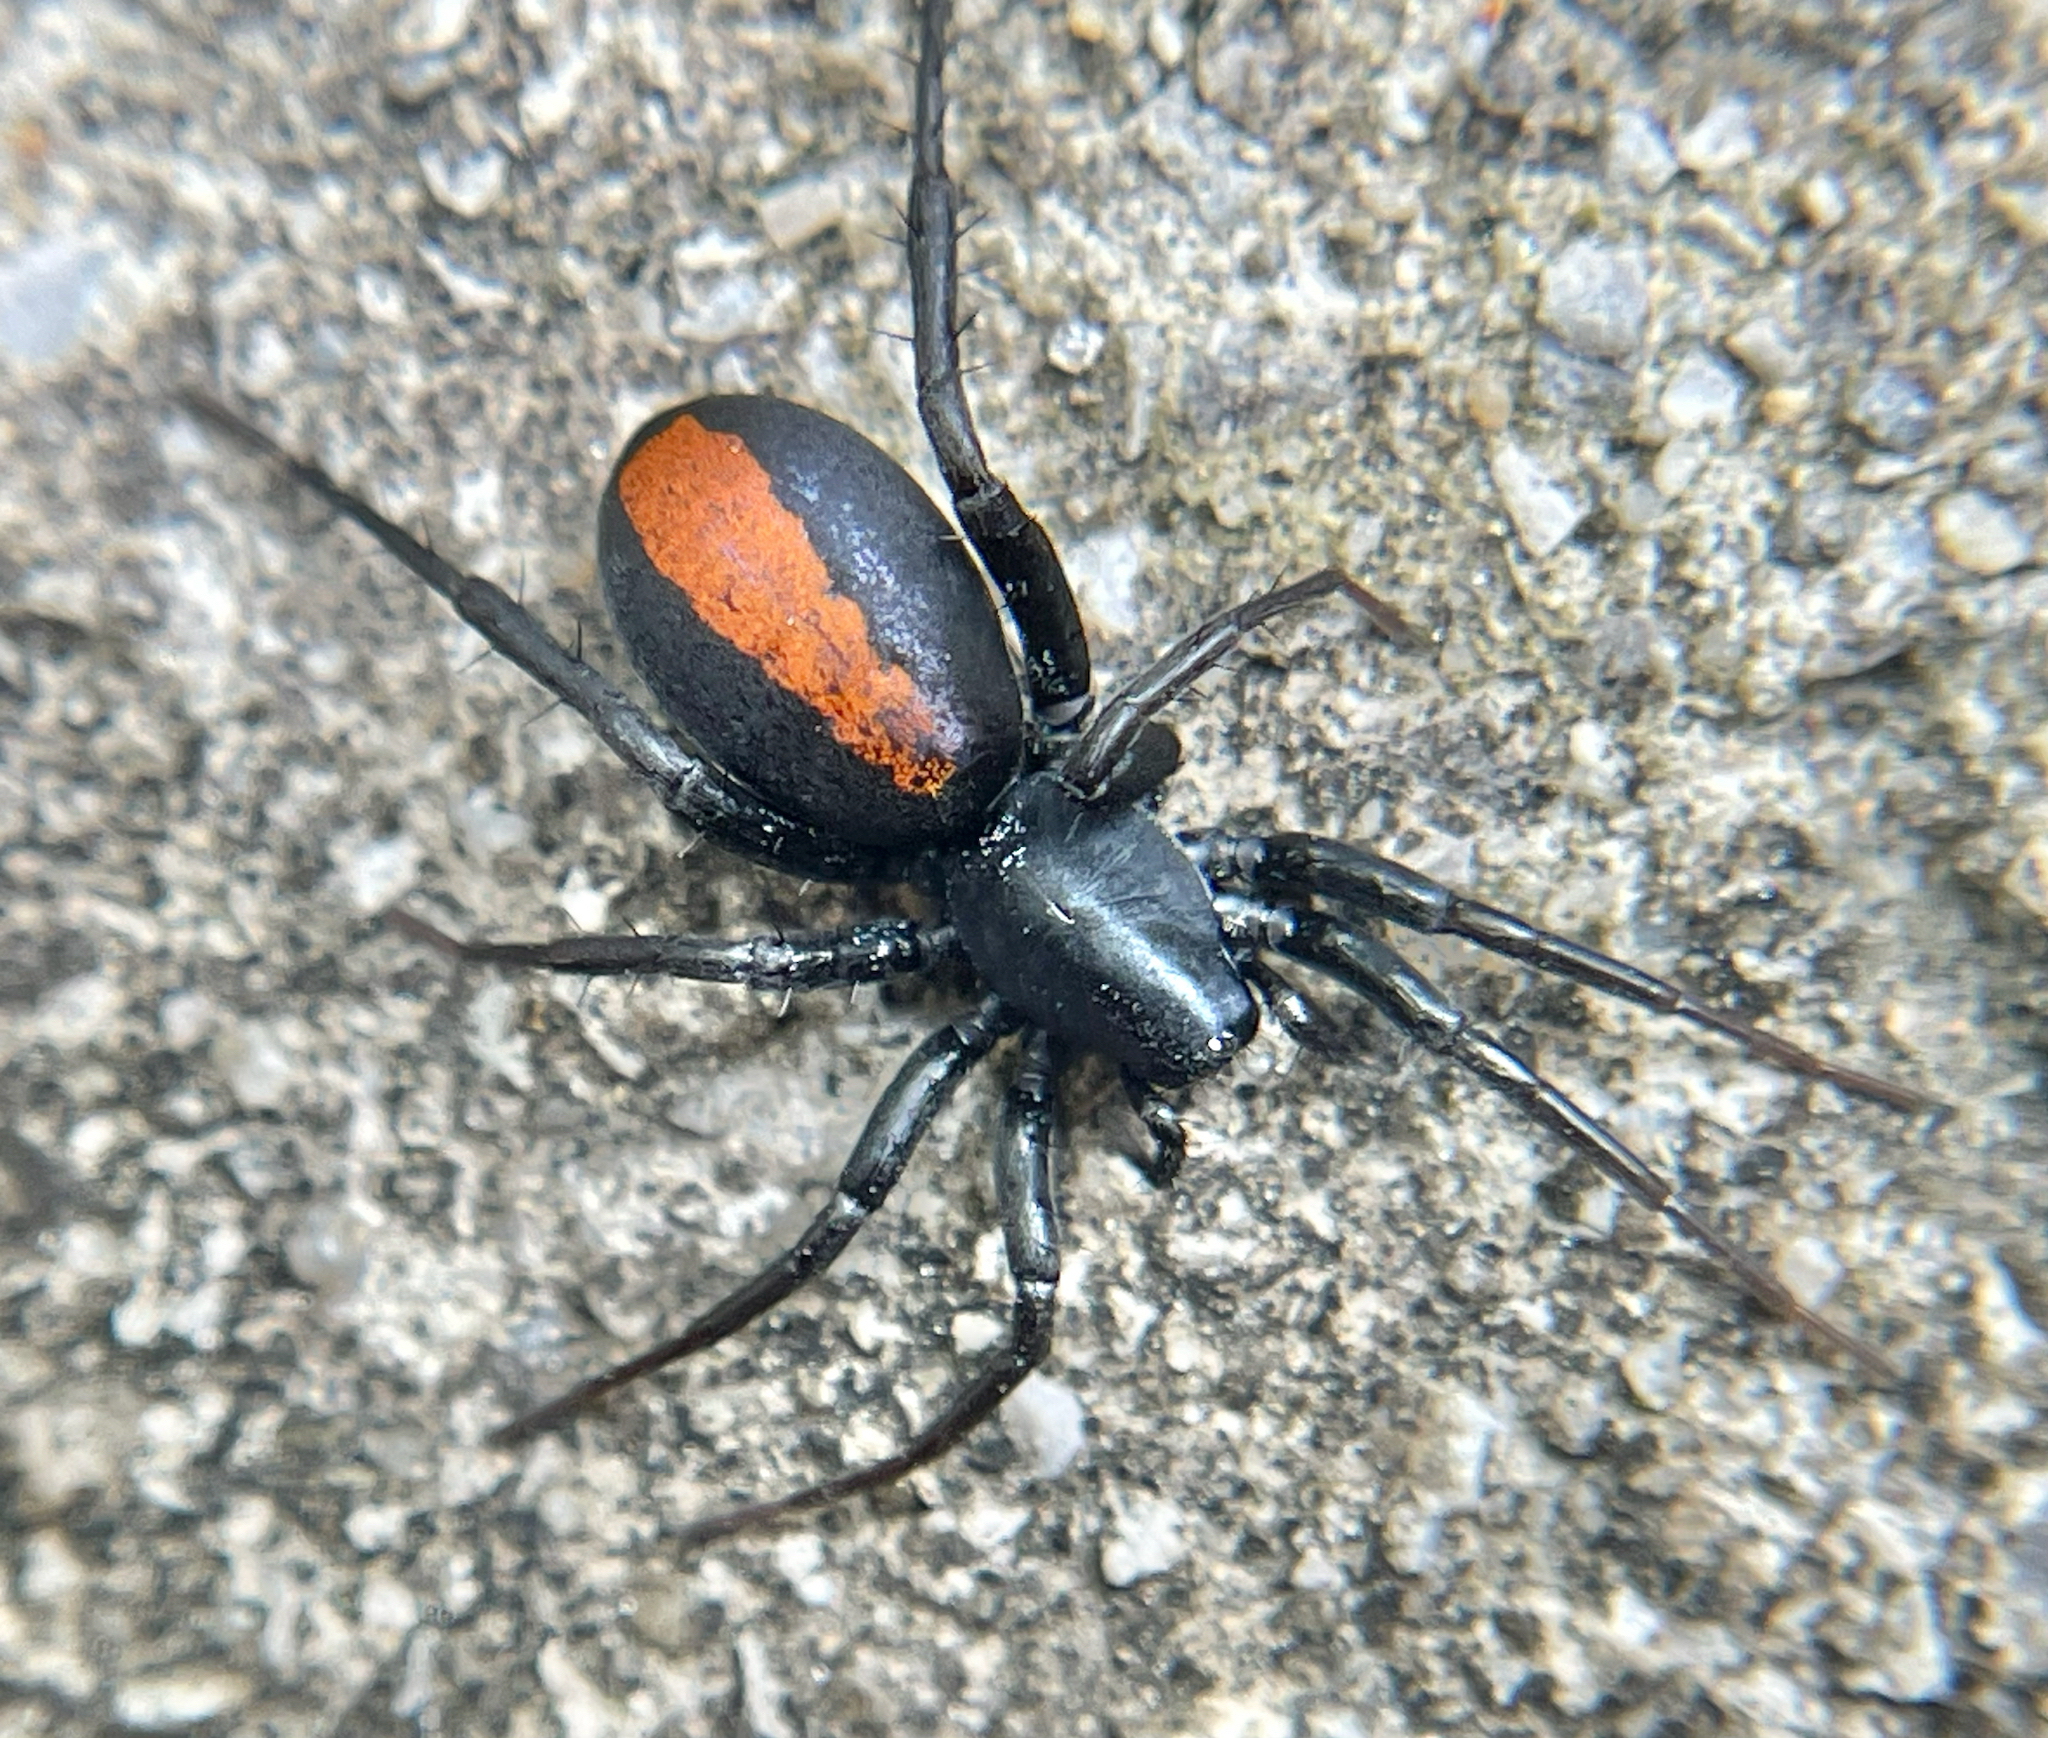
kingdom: Animalia
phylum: Arthropoda
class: Arachnida
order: Araneae
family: Corinnidae
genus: Castianeira
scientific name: Castianeira descripta
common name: Red-spotted ant-mimic sac spider
